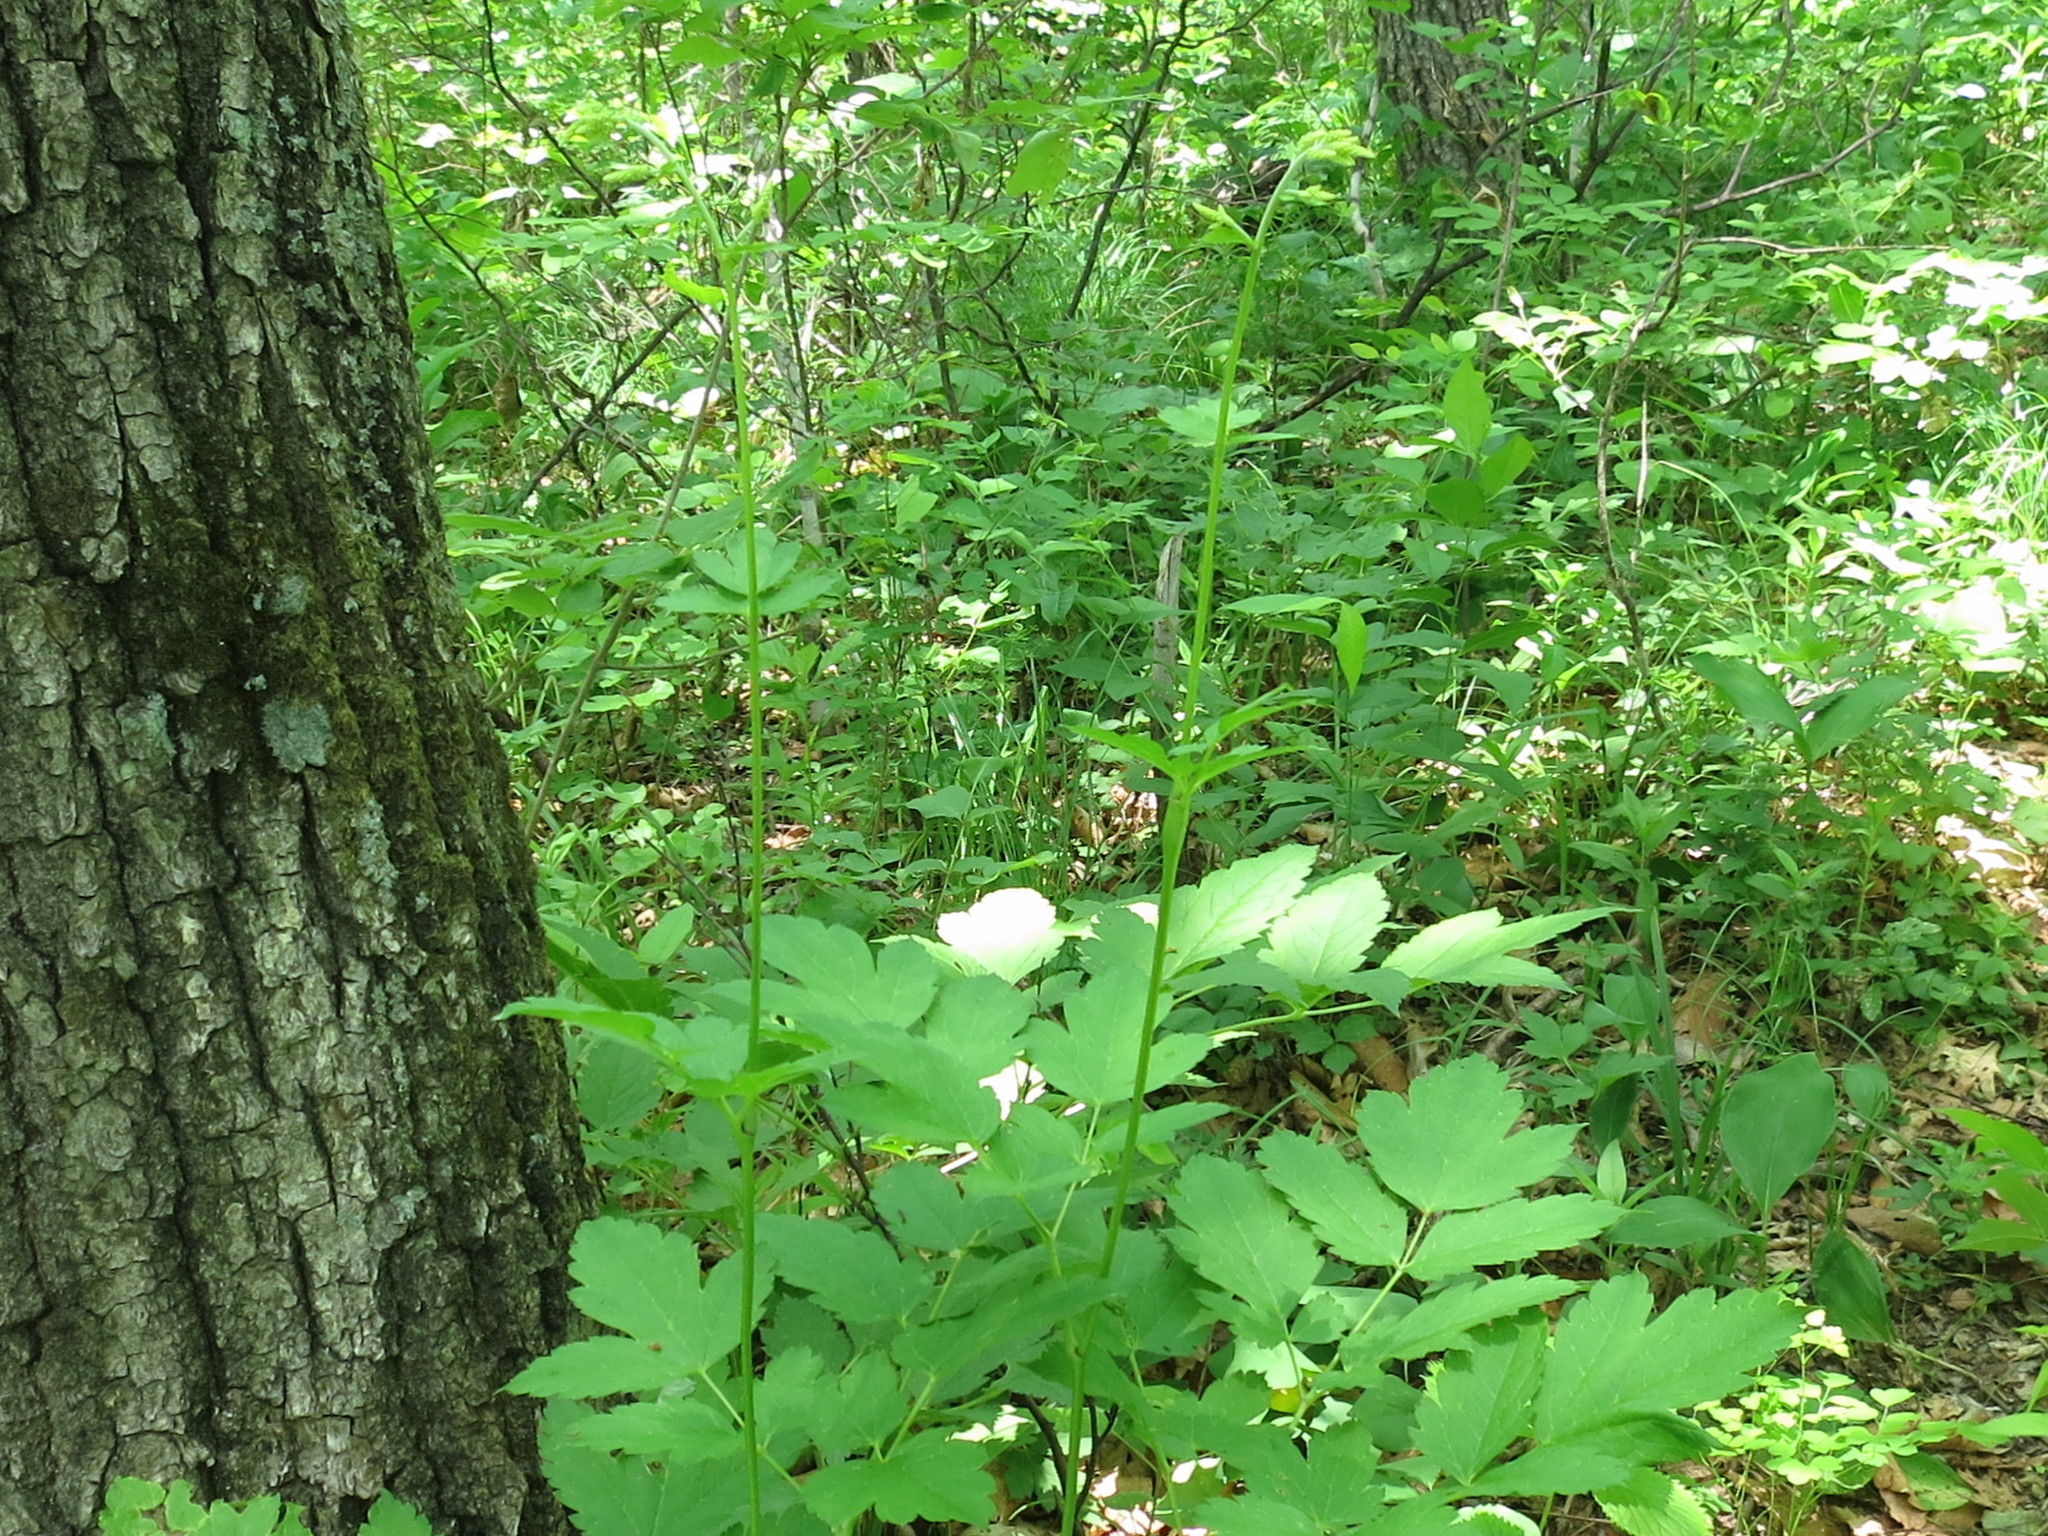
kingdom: Plantae
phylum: Tracheophyta
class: Magnoliopsida
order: Ranunculales
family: Ranunculaceae
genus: Actaea
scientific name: Actaea dahurica
